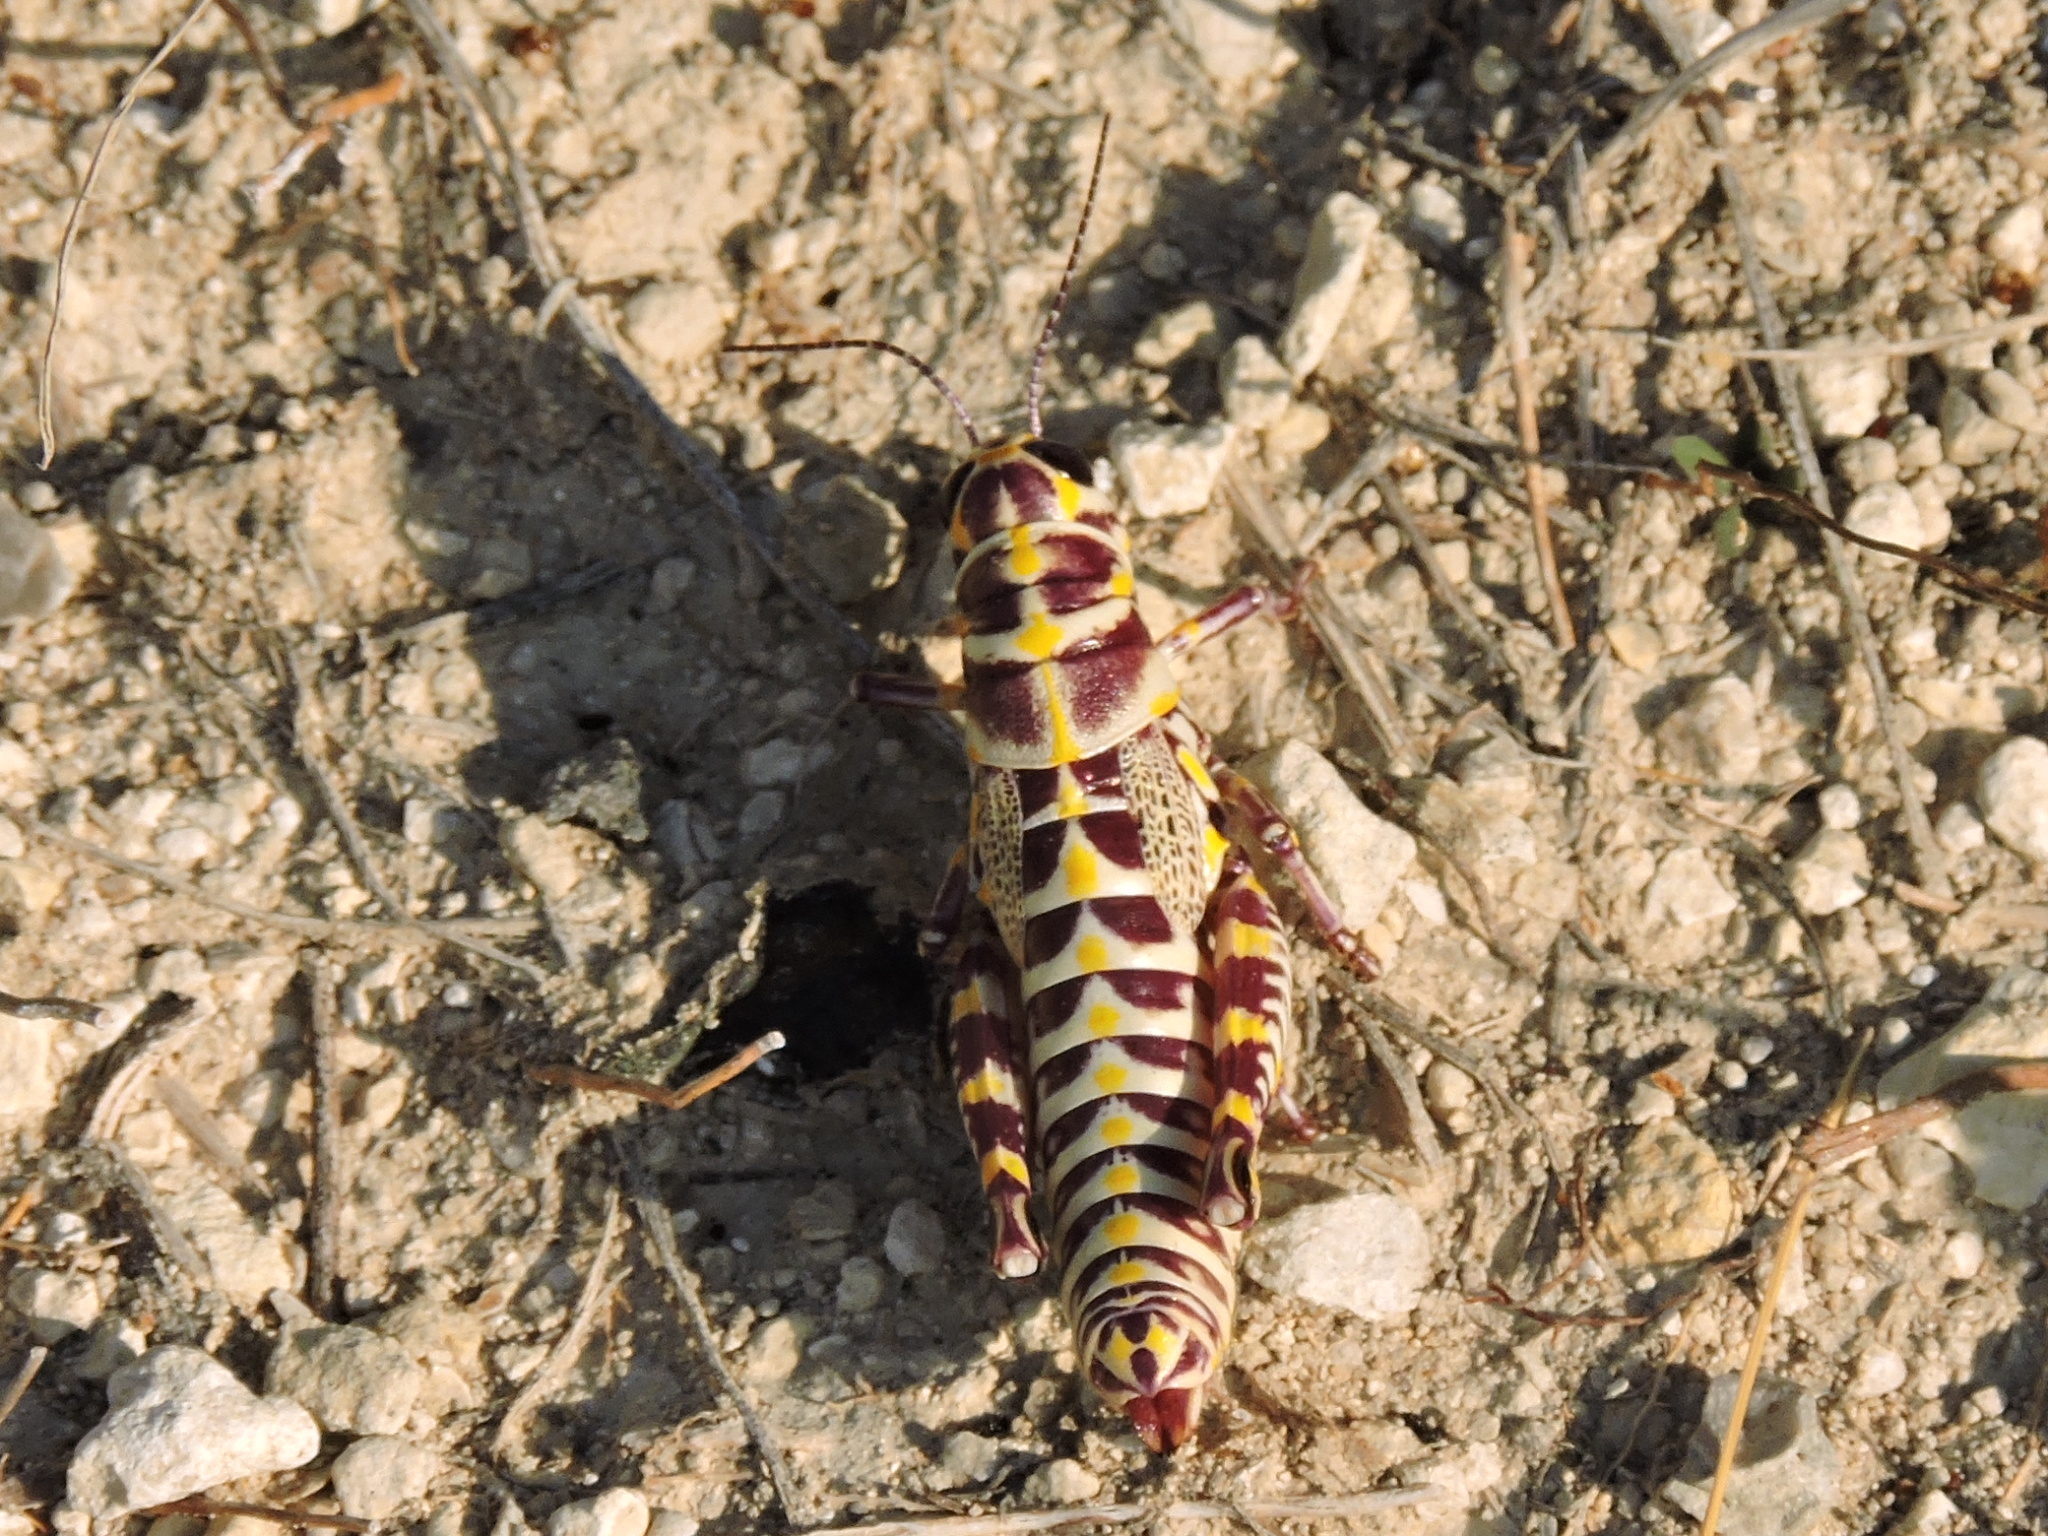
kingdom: Animalia
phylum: Arthropoda
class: Insecta
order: Orthoptera
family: Acrididae
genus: Dactylotum
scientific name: Dactylotum bicolor
